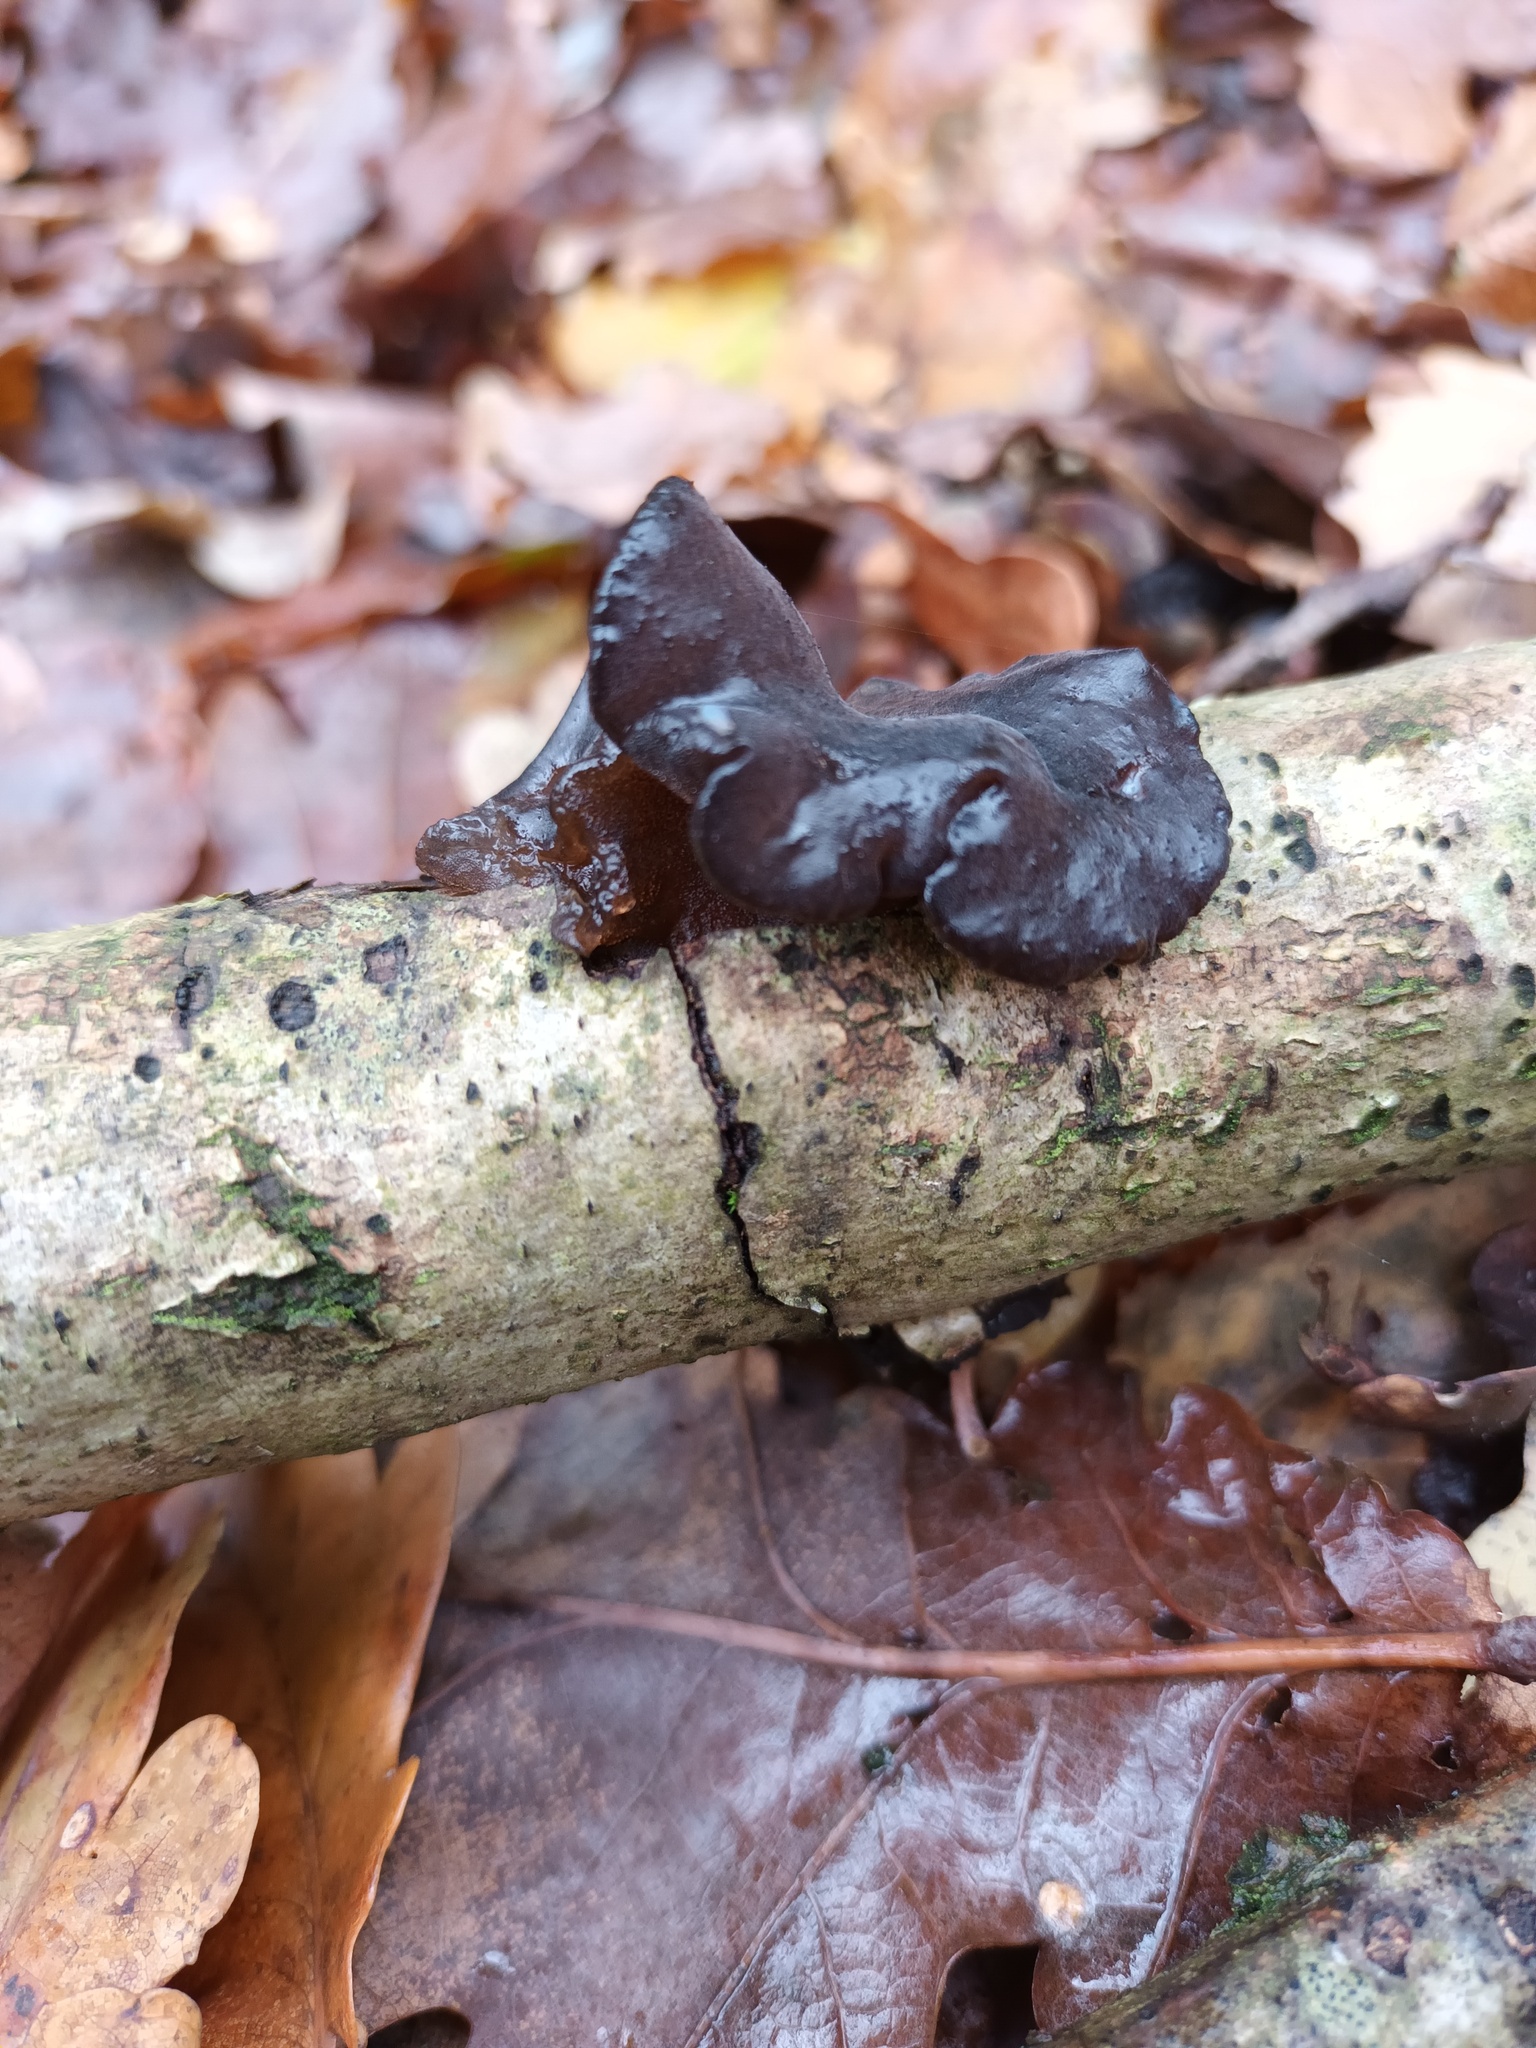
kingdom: Fungi
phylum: Basidiomycota
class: Agaricomycetes
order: Auriculariales
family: Auriculariaceae
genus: Exidia
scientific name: Exidia glandulosa
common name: Witches' butter
